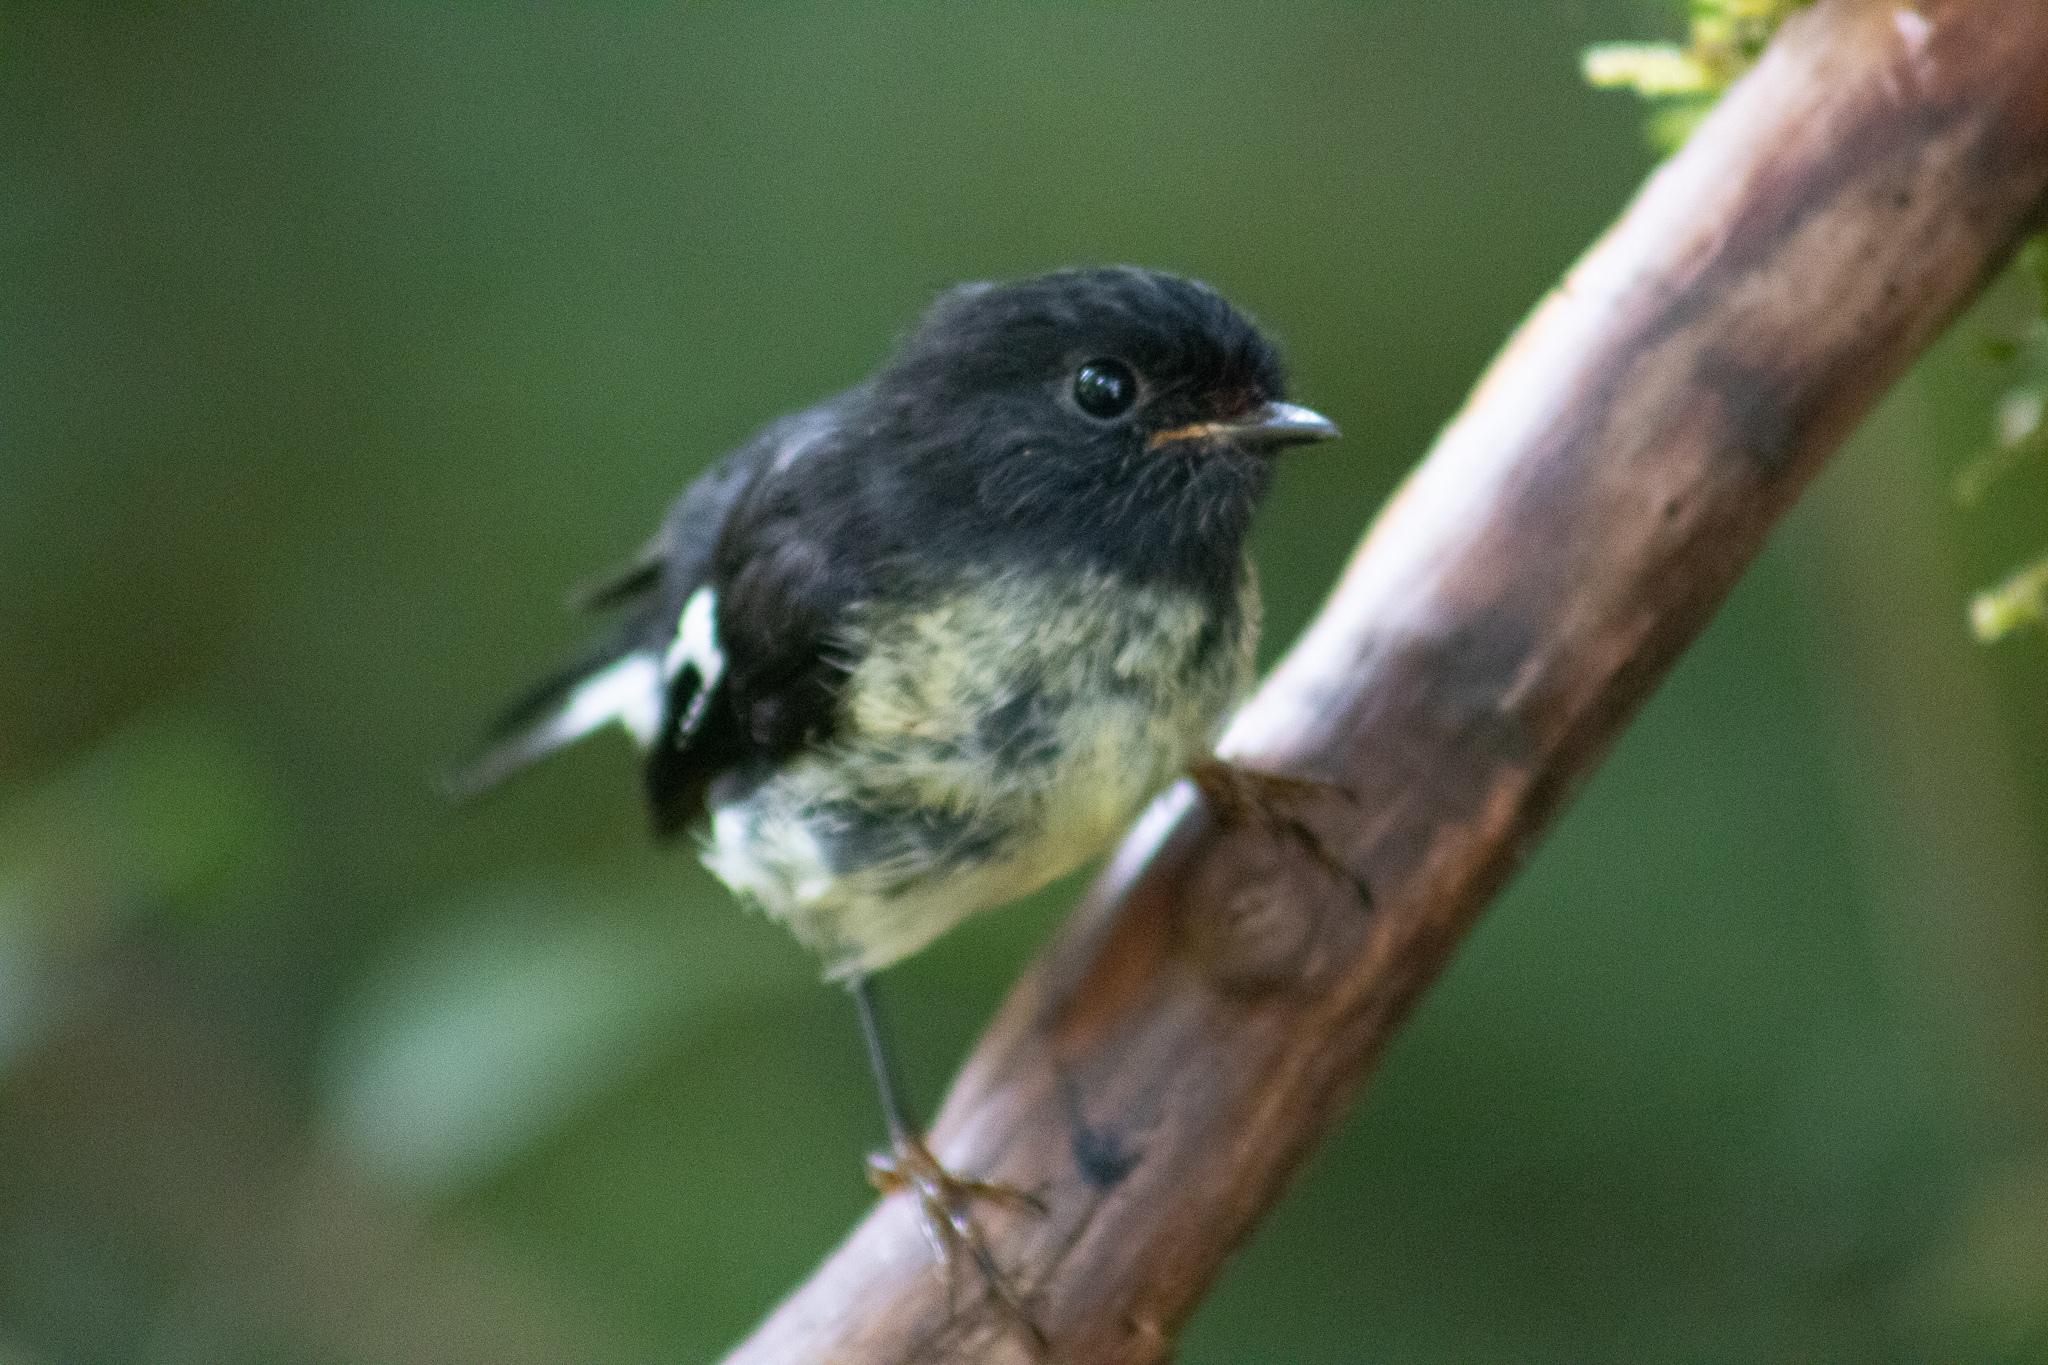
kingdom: Animalia
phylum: Chordata
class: Aves
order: Passeriformes
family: Petroicidae
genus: Petroica
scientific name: Petroica macrocephala
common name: Tomtit
